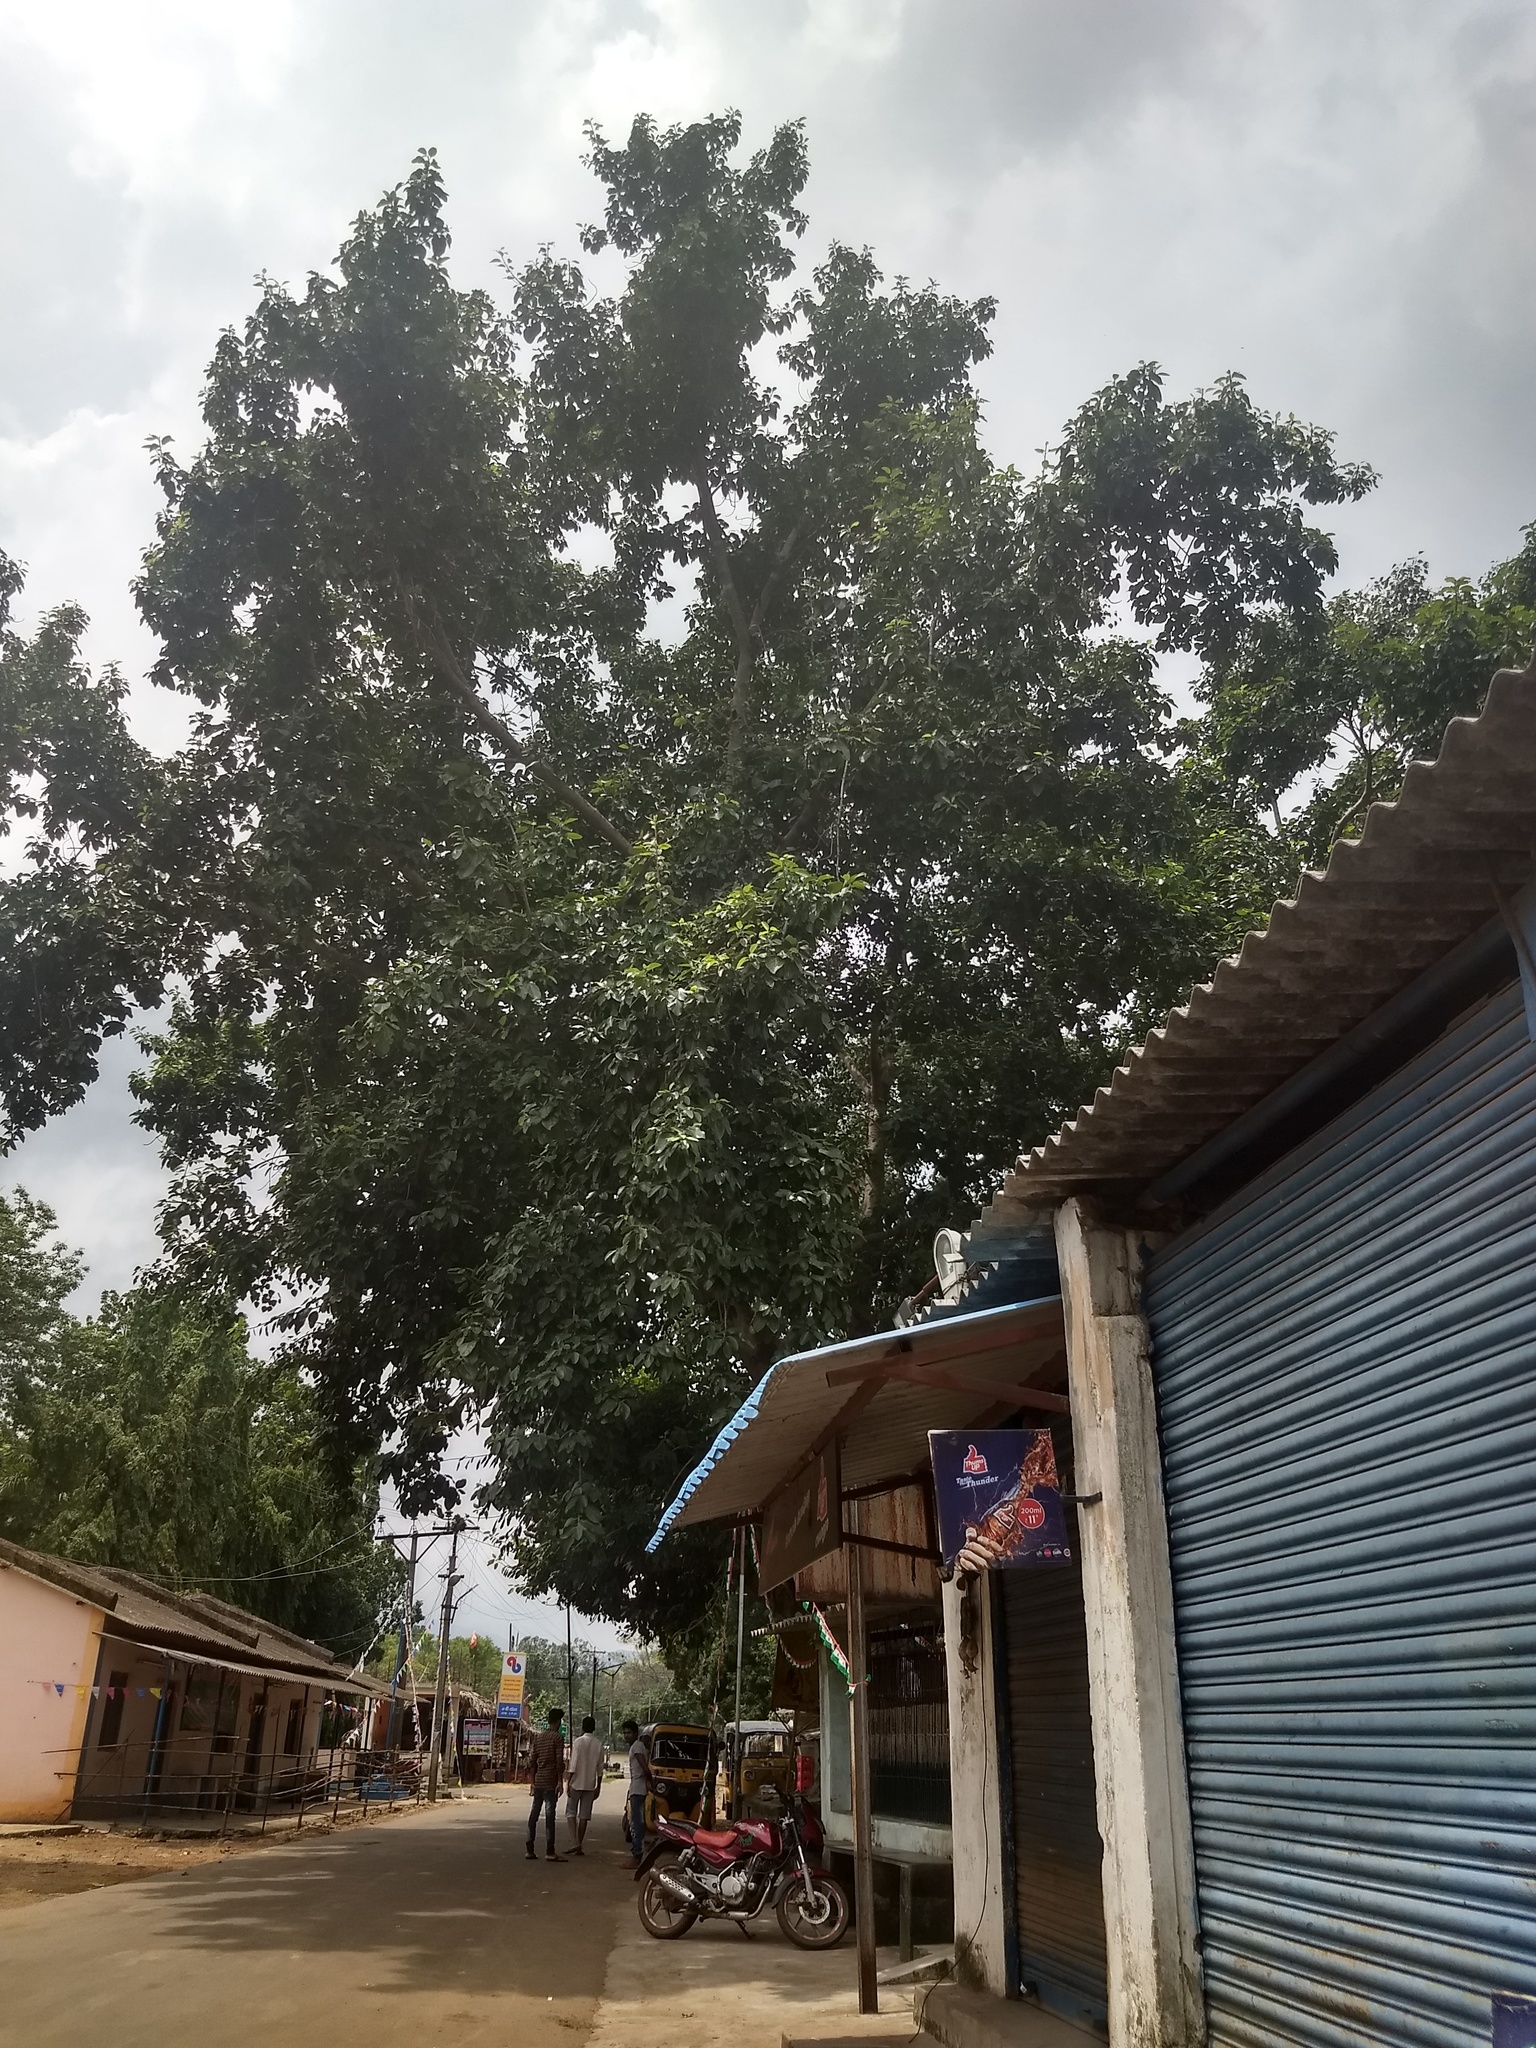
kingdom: Plantae
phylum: Tracheophyta
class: Magnoliopsida
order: Rosales
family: Moraceae
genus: Ficus
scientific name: Ficus benghalensis
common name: Indian banyan
